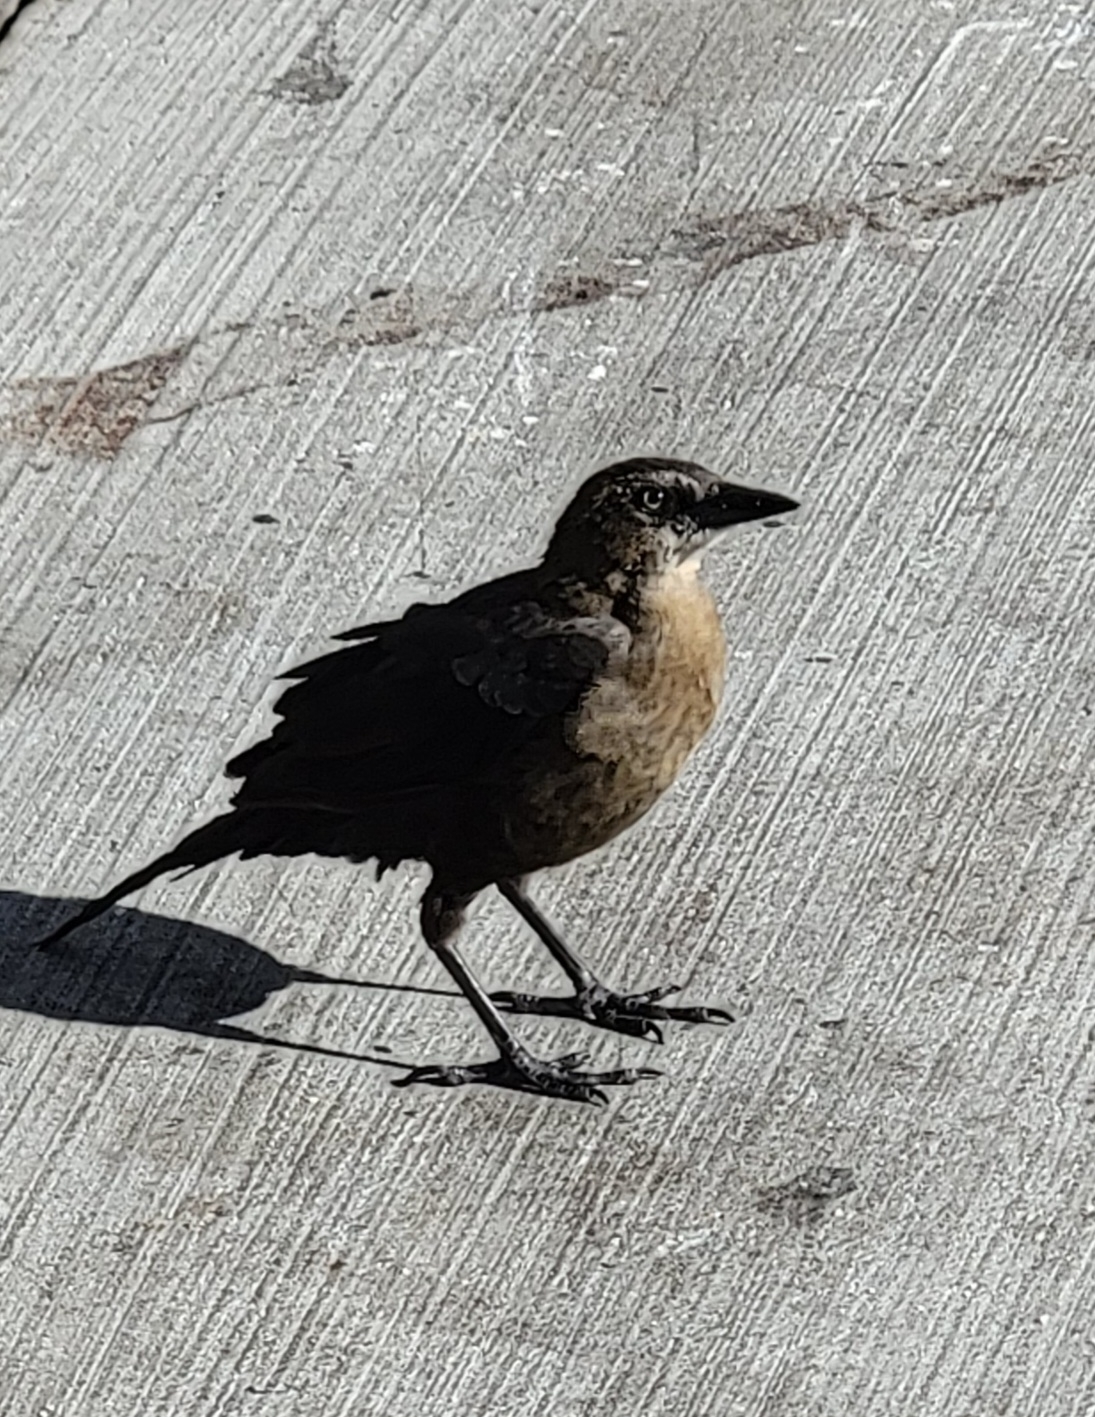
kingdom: Animalia
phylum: Chordata
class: Aves
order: Passeriformes
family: Icteridae
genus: Quiscalus
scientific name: Quiscalus mexicanus
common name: Great-tailed grackle
